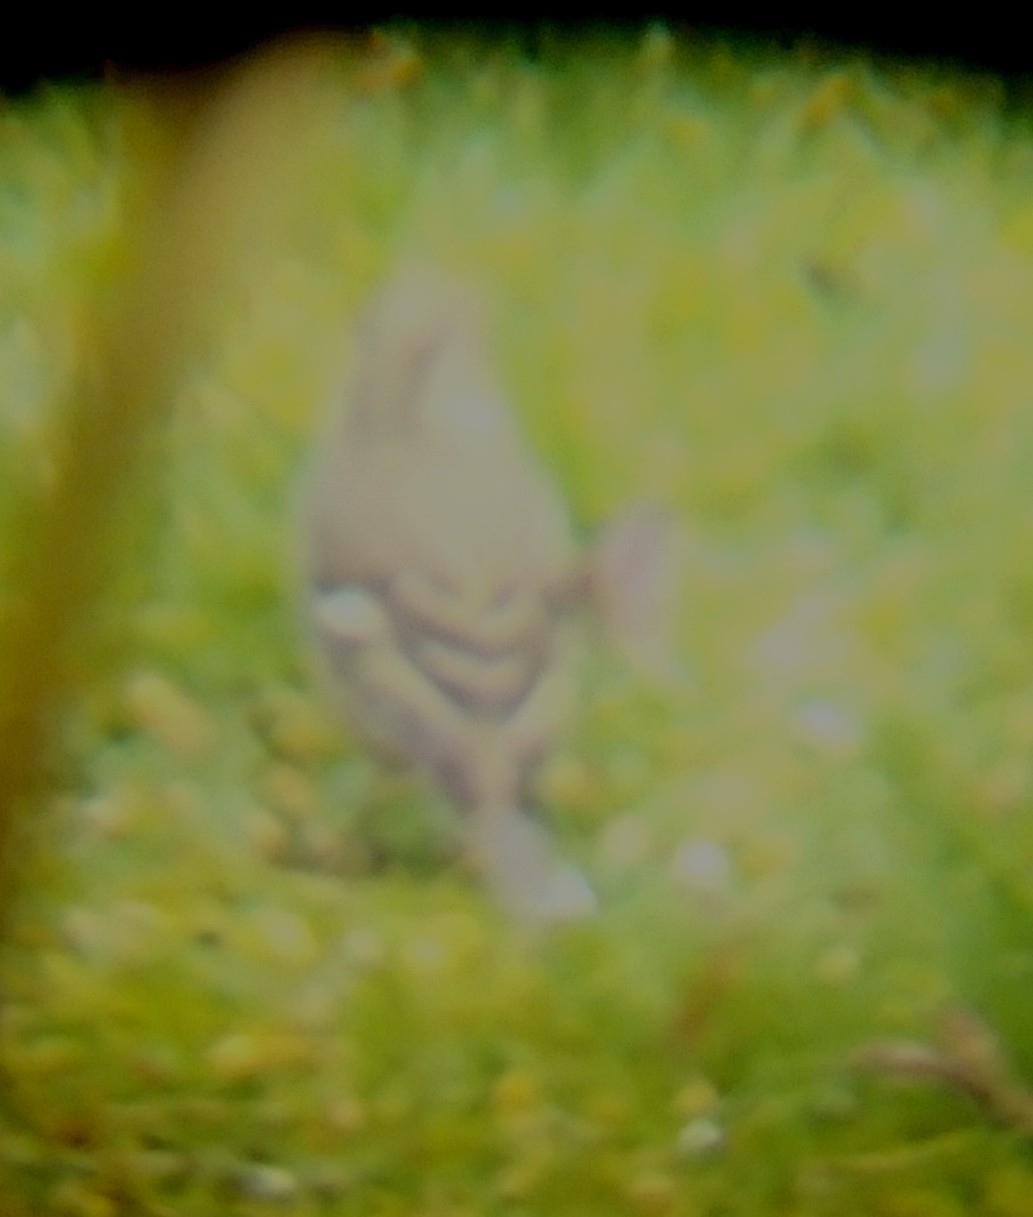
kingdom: Animalia
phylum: Chordata
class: Aves
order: Passeriformes
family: Fringillidae
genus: Fringilla
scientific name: Fringilla coelebs
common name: Common chaffinch
